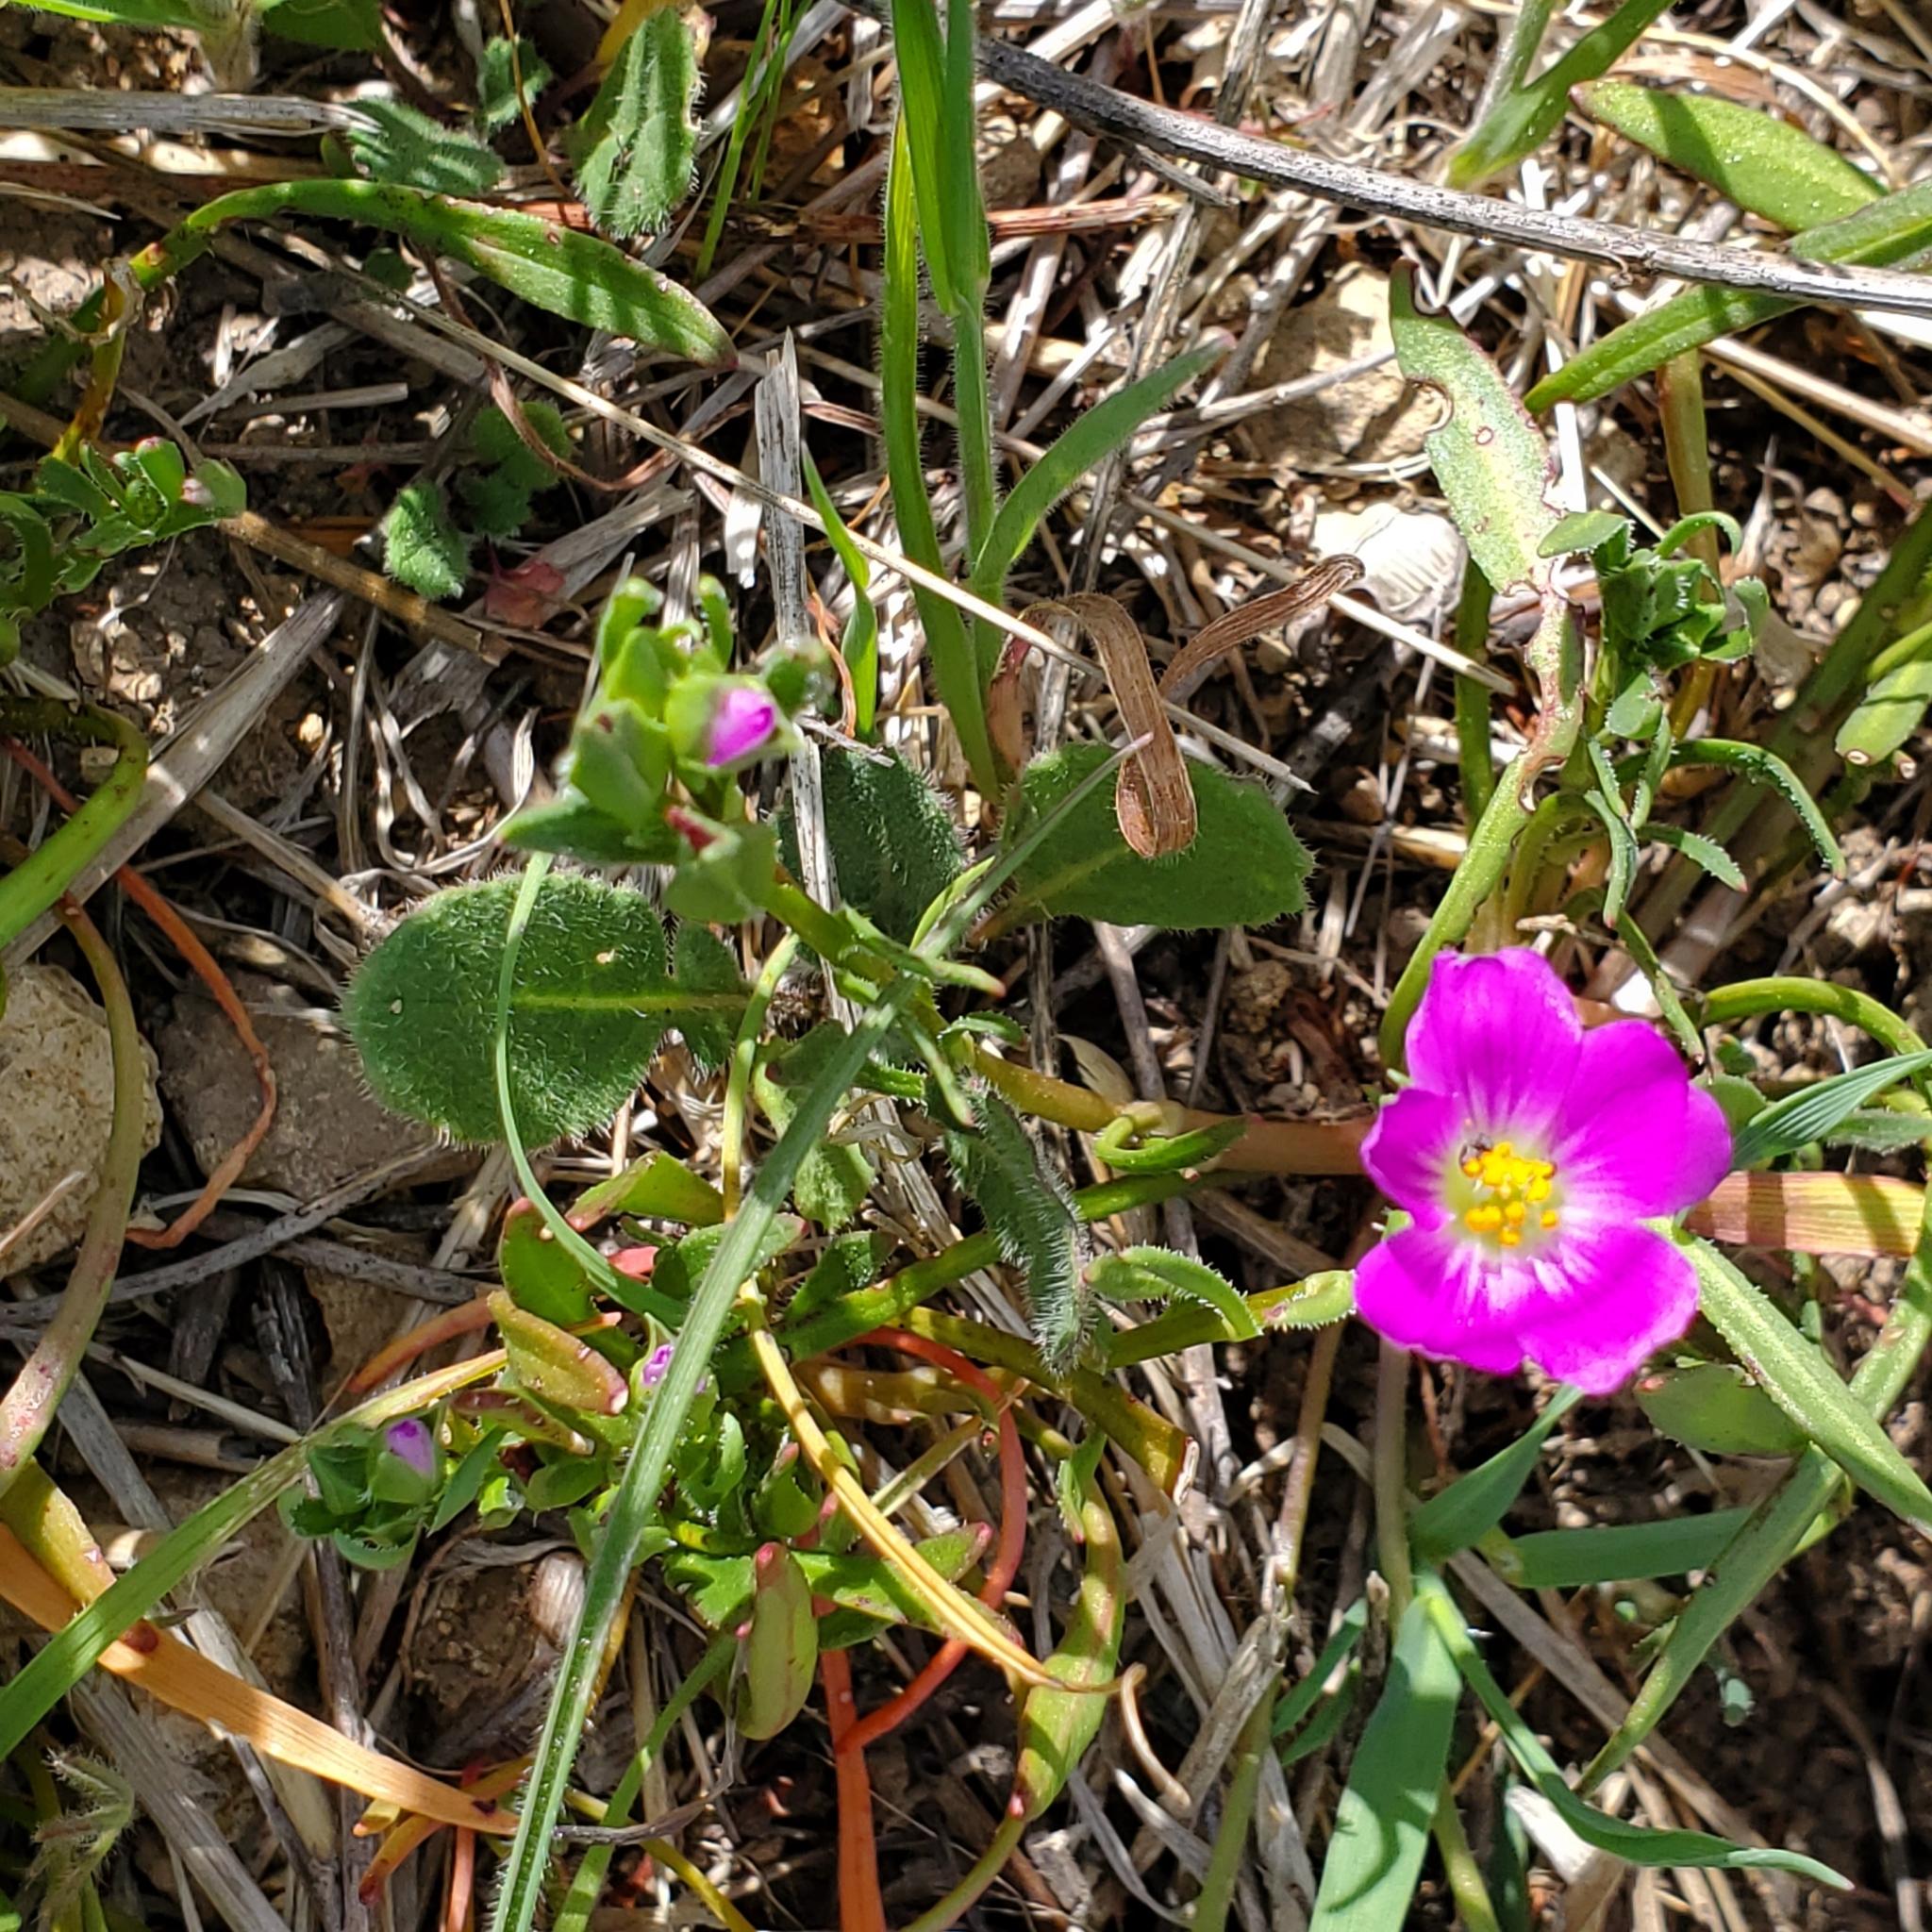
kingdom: Plantae
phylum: Tracheophyta
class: Magnoliopsida
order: Caryophyllales
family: Montiaceae
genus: Calandrinia
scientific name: Calandrinia menziesii
